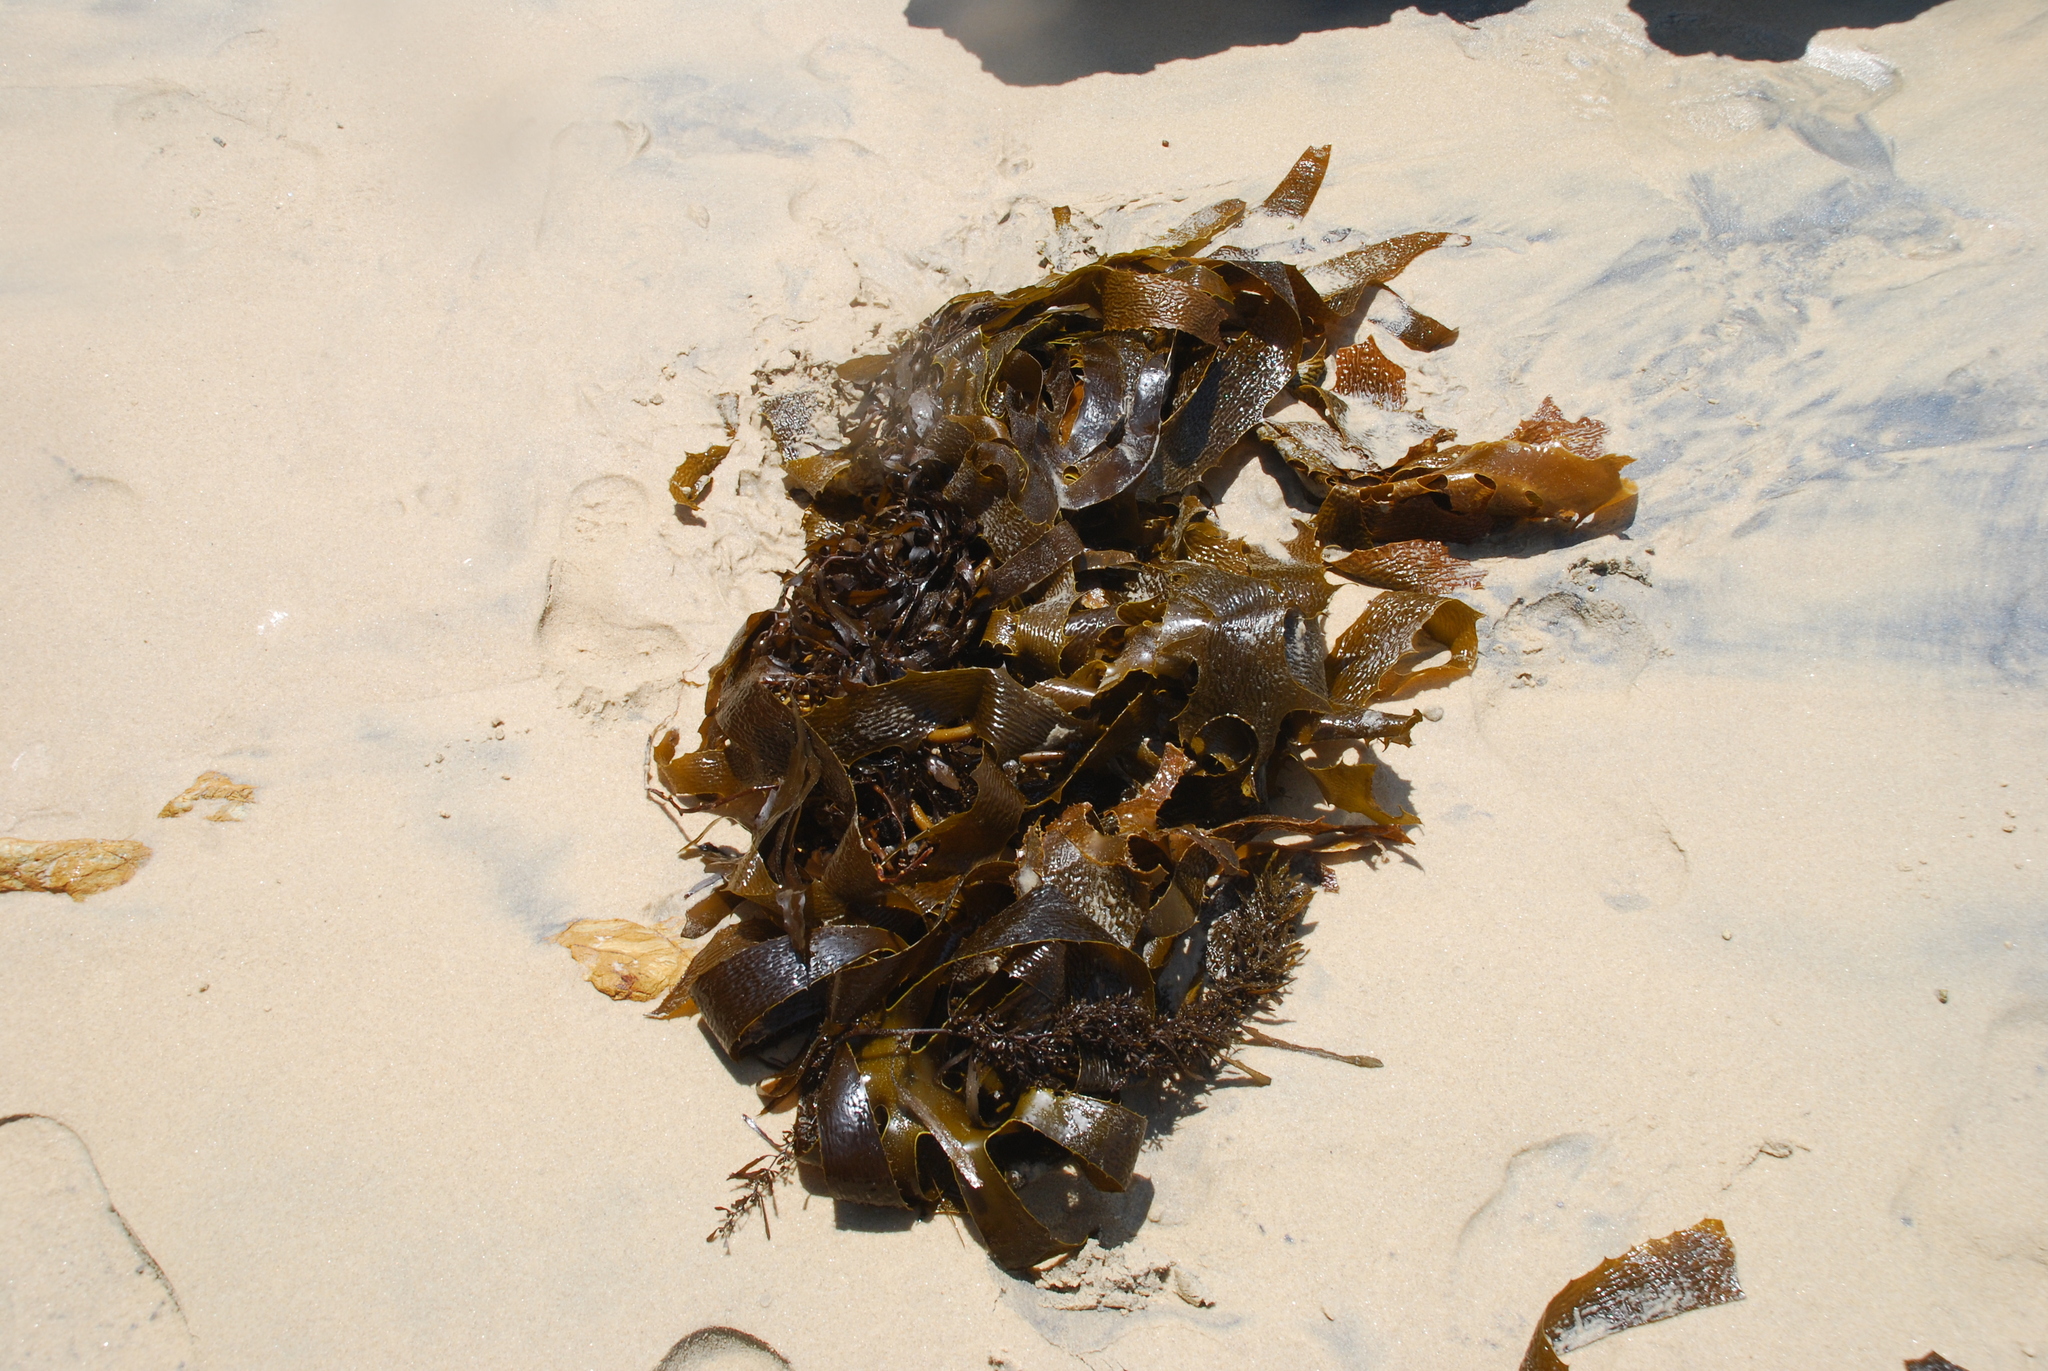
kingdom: Chromista
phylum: Ochrophyta
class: Phaeophyceae
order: Laminariales
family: Lessoniaceae
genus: Ecklonia
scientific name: Ecklonia radiata
